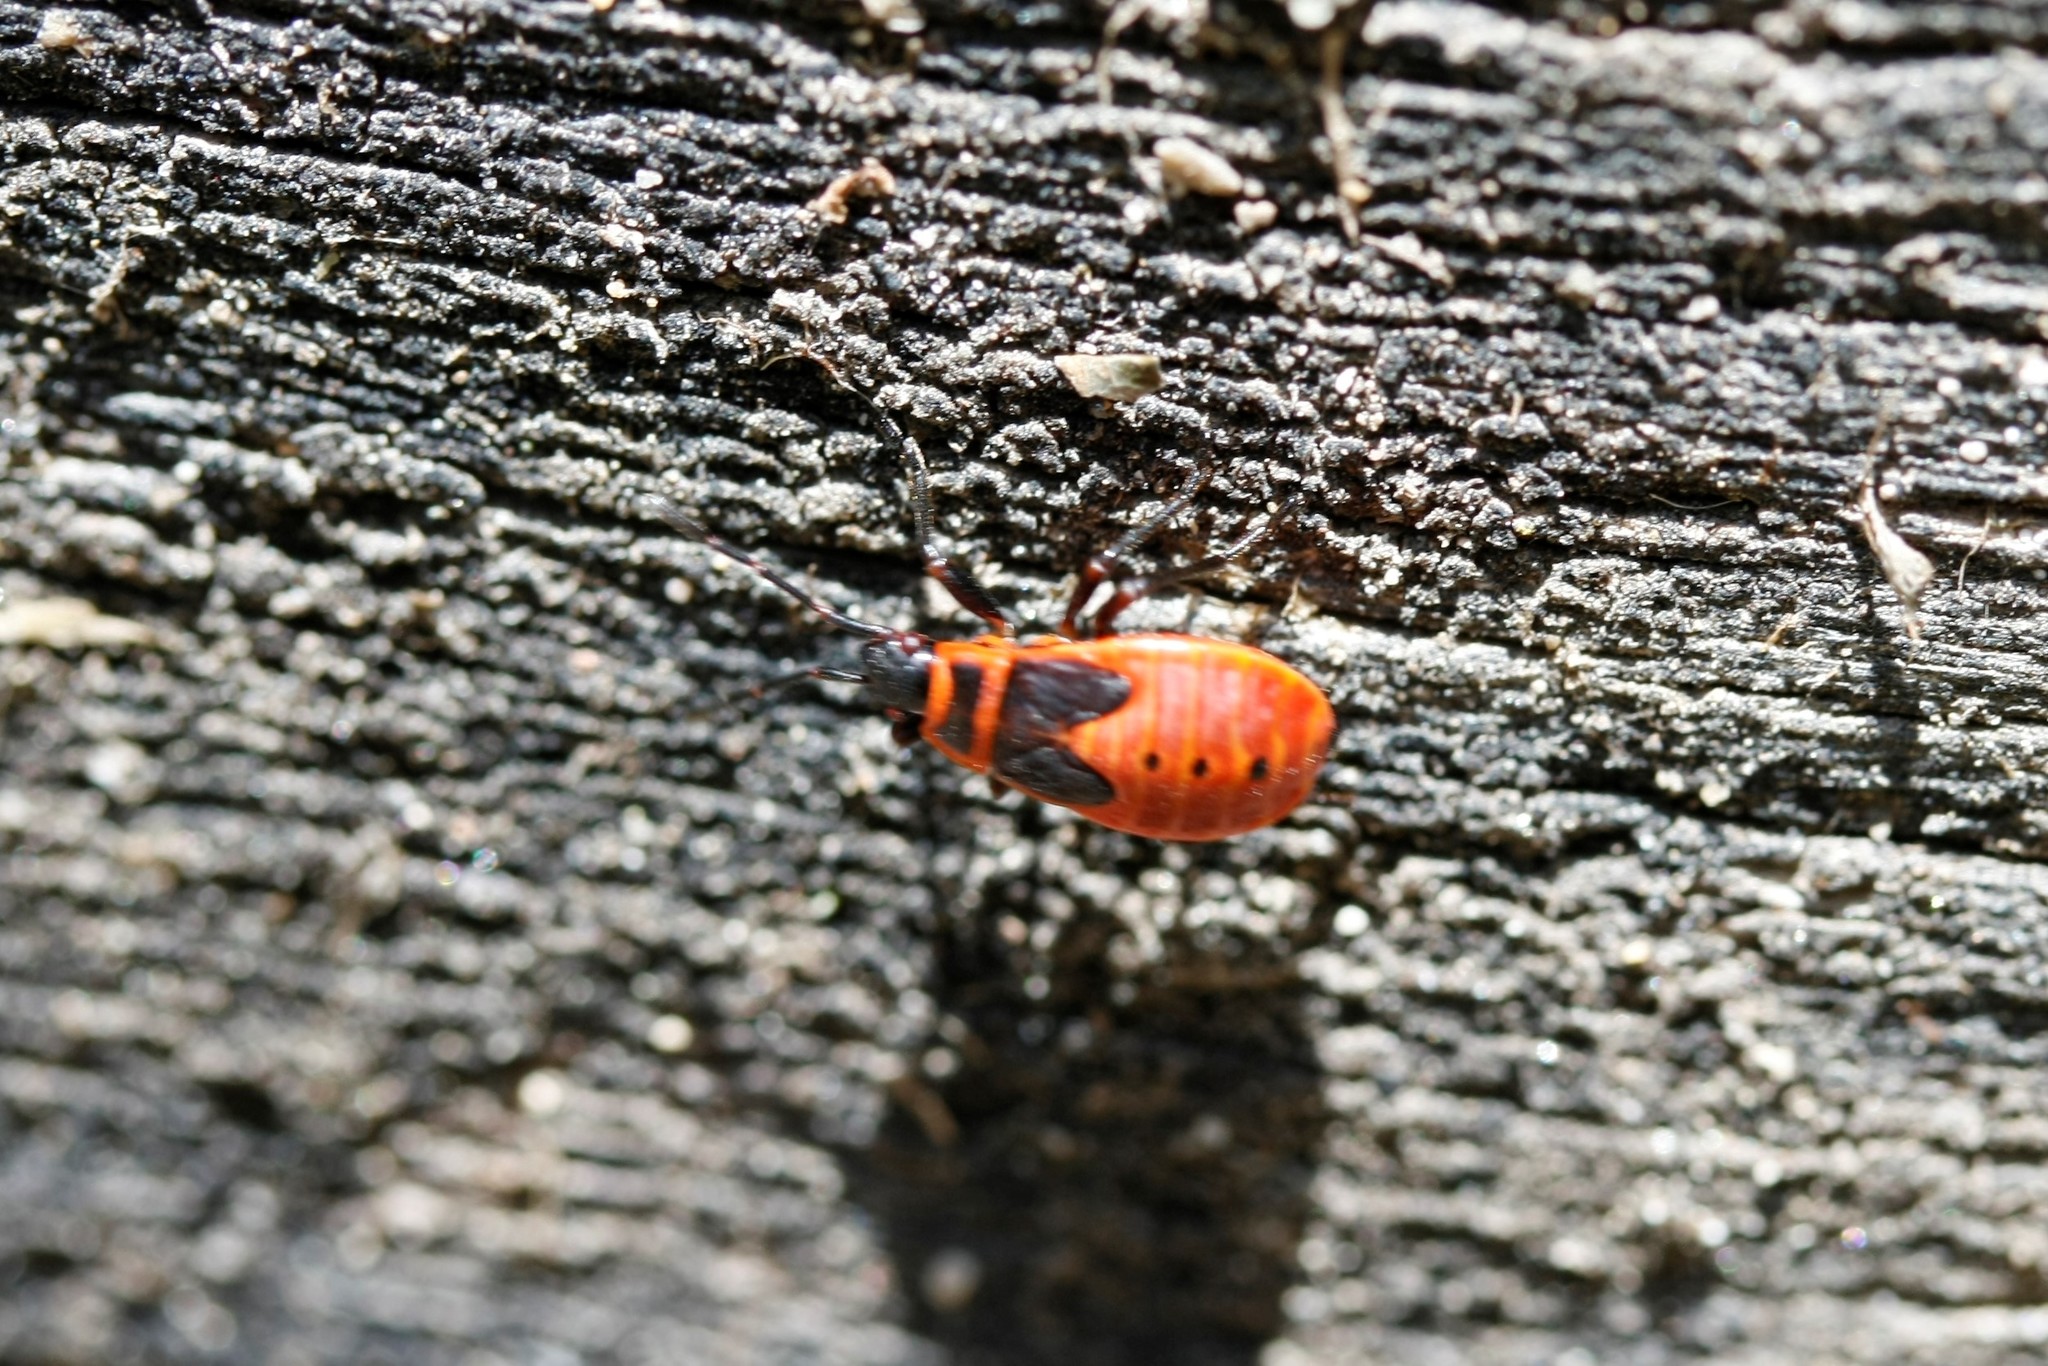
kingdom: Animalia
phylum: Arthropoda
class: Insecta
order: Hemiptera
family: Pyrrhocoridae
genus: Pyrrhocoris
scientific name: Pyrrhocoris apterus
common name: Firebug
